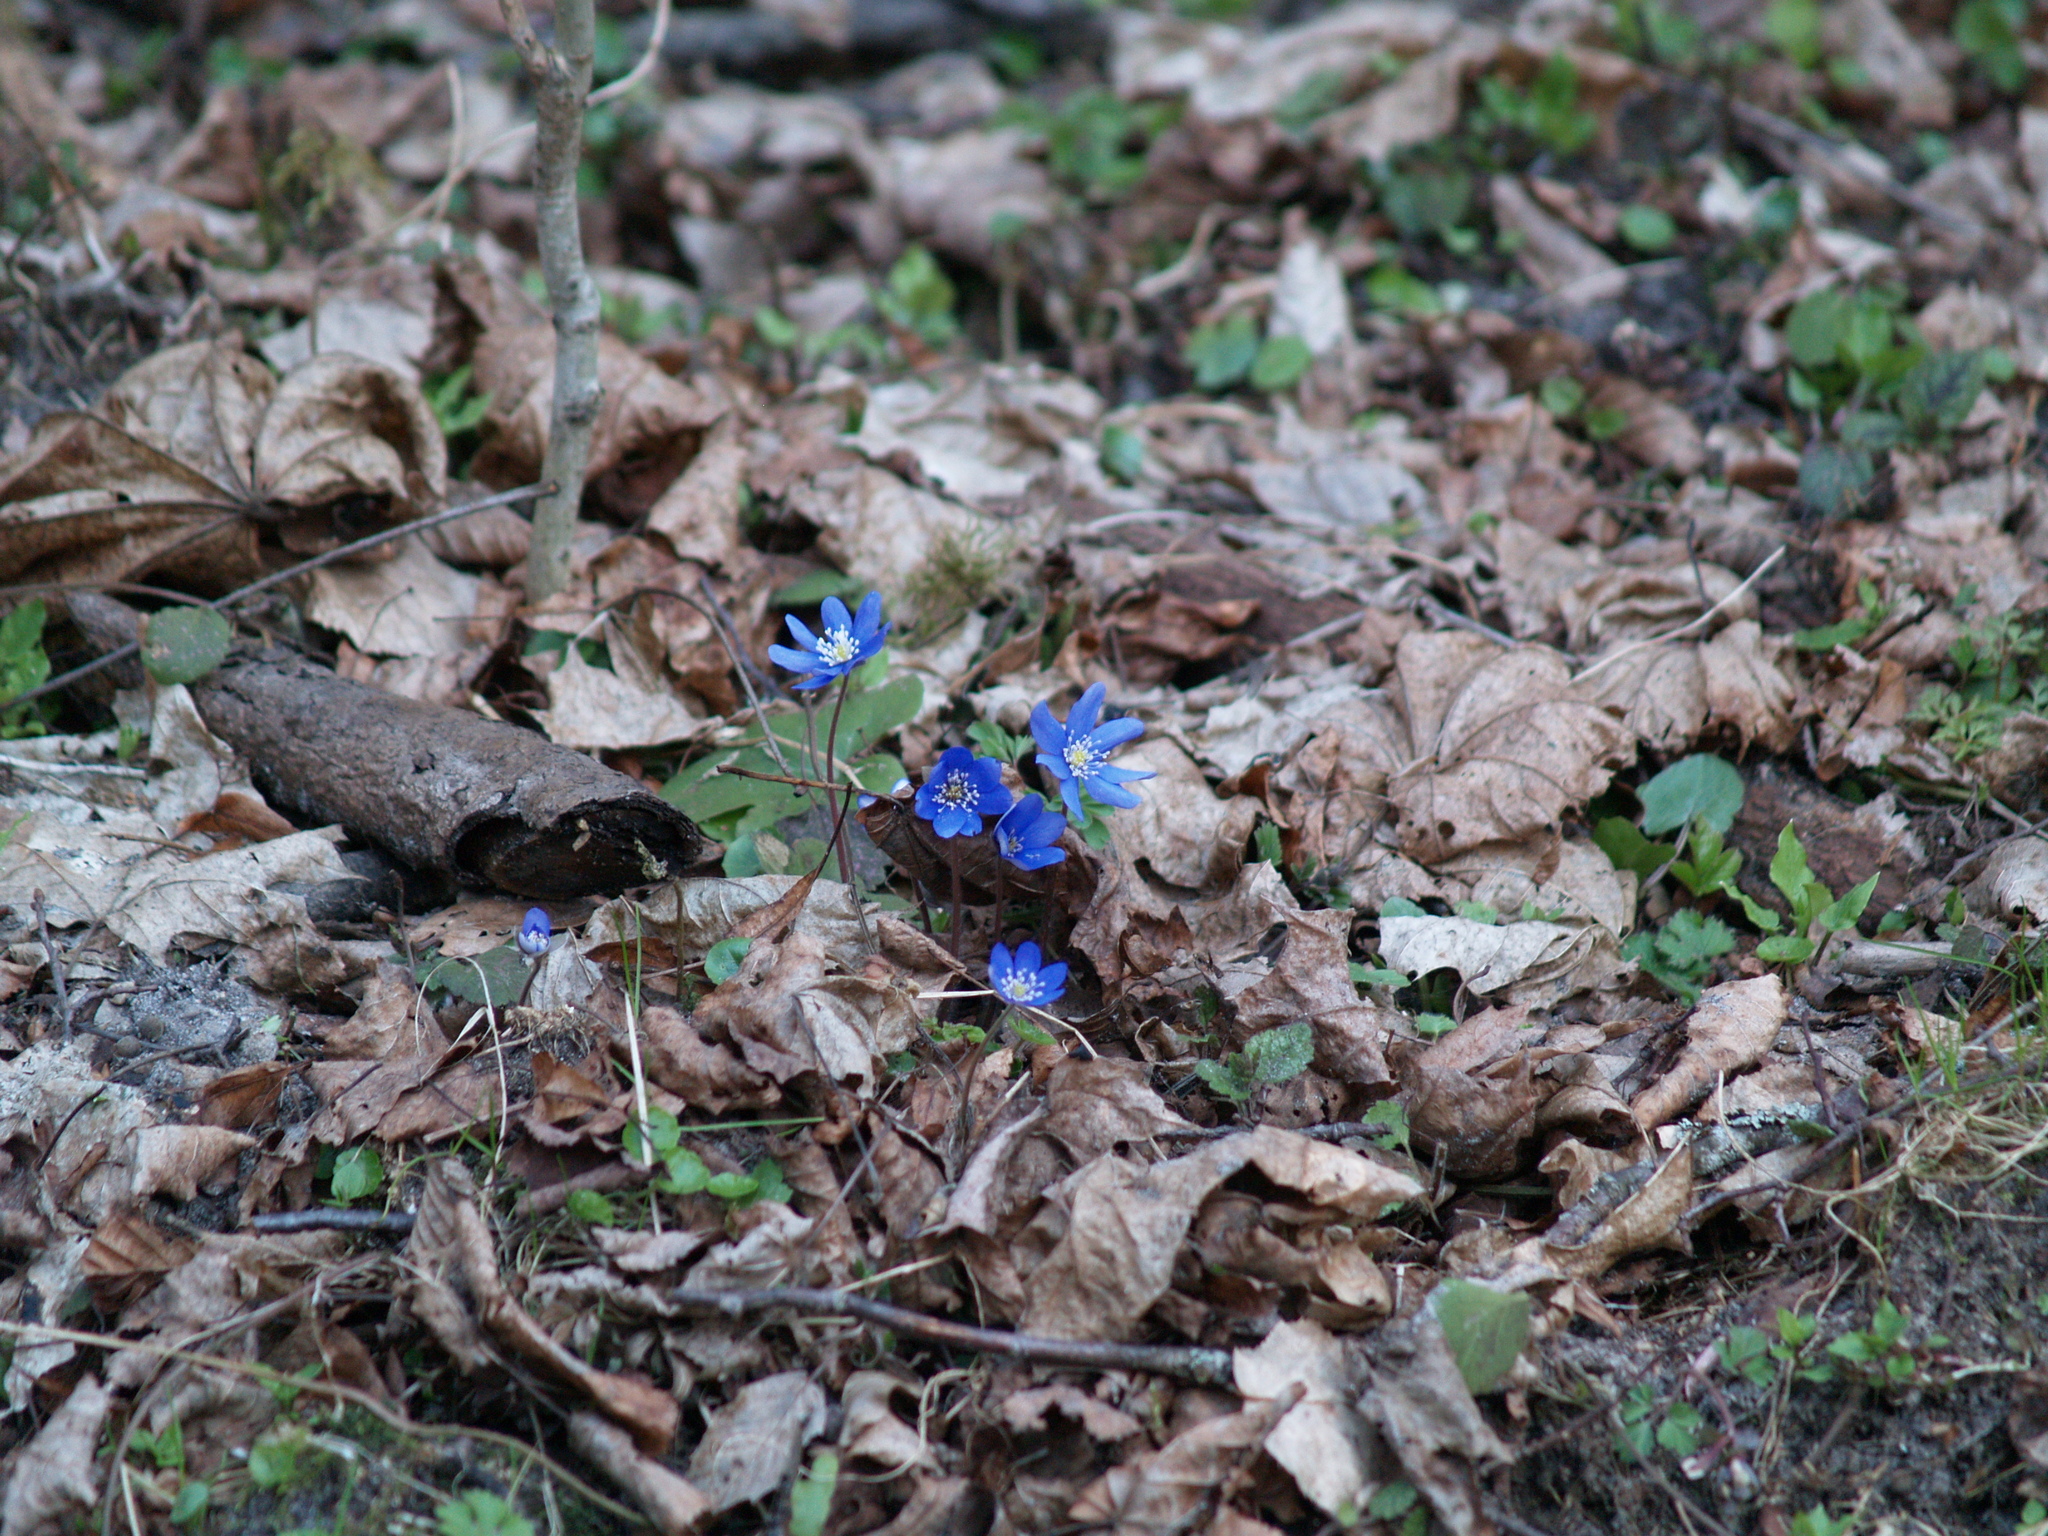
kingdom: Plantae
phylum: Tracheophyta
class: Magnoliopsida
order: Ranunculales
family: Ranunculaceae
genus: Hepatica
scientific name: Hepatica nobilis
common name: Liverleaf
